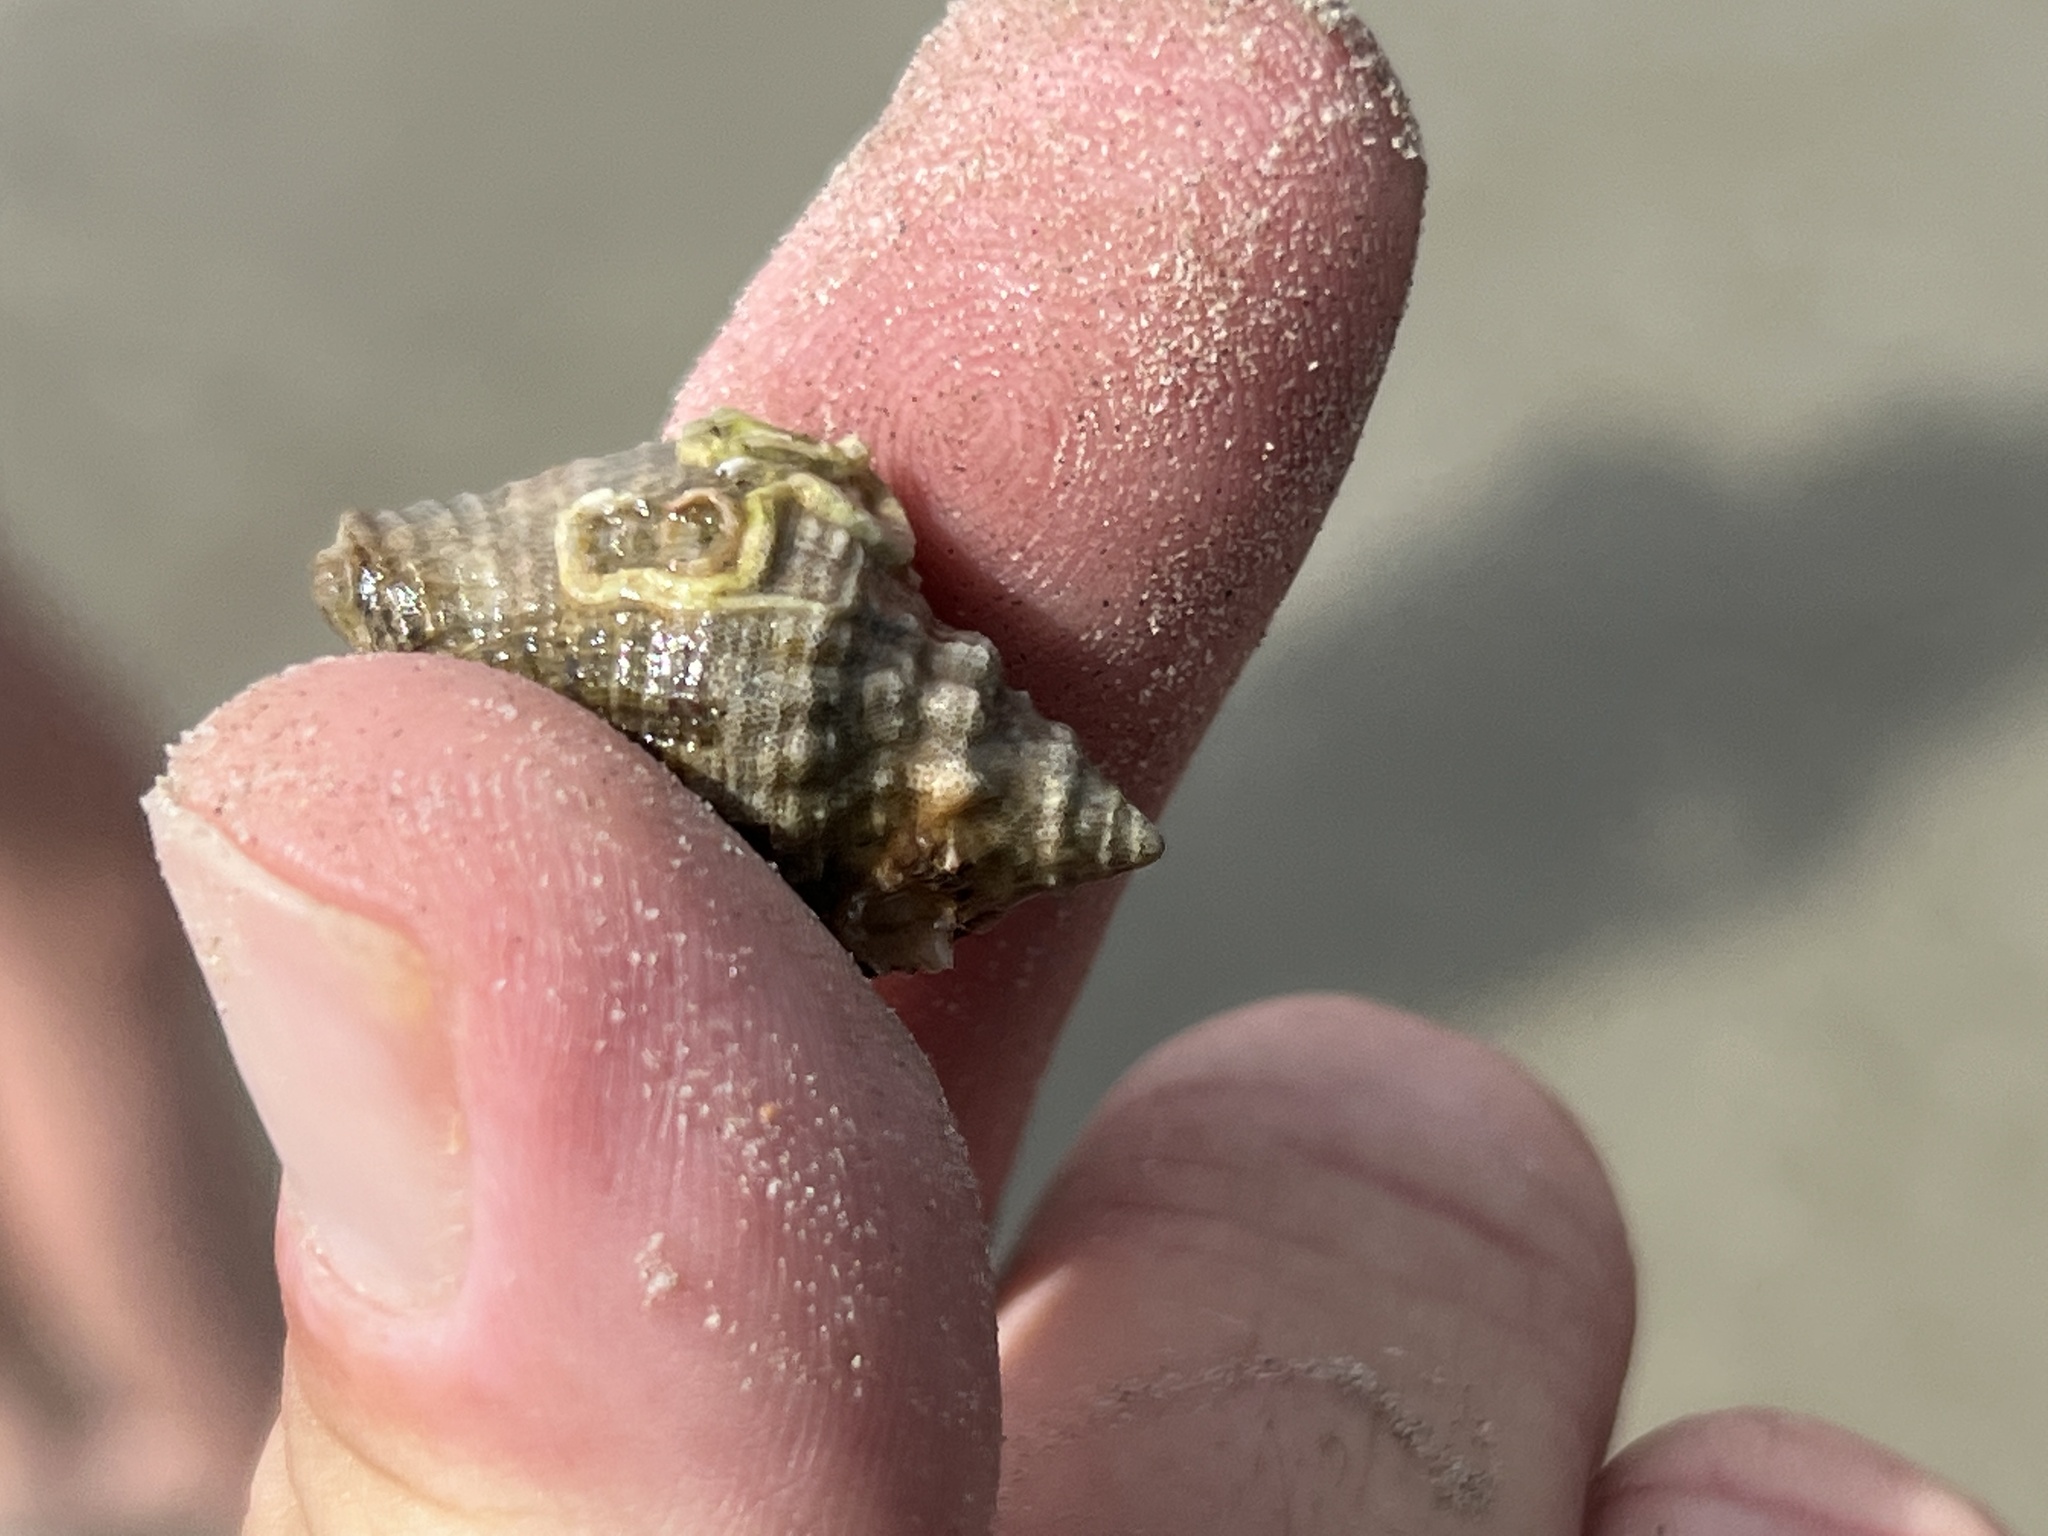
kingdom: Animalia
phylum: Mollusca
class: Gastropoda
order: Neogastropoda
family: Muricidae
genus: Stramonita
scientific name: Stramonita floridana
